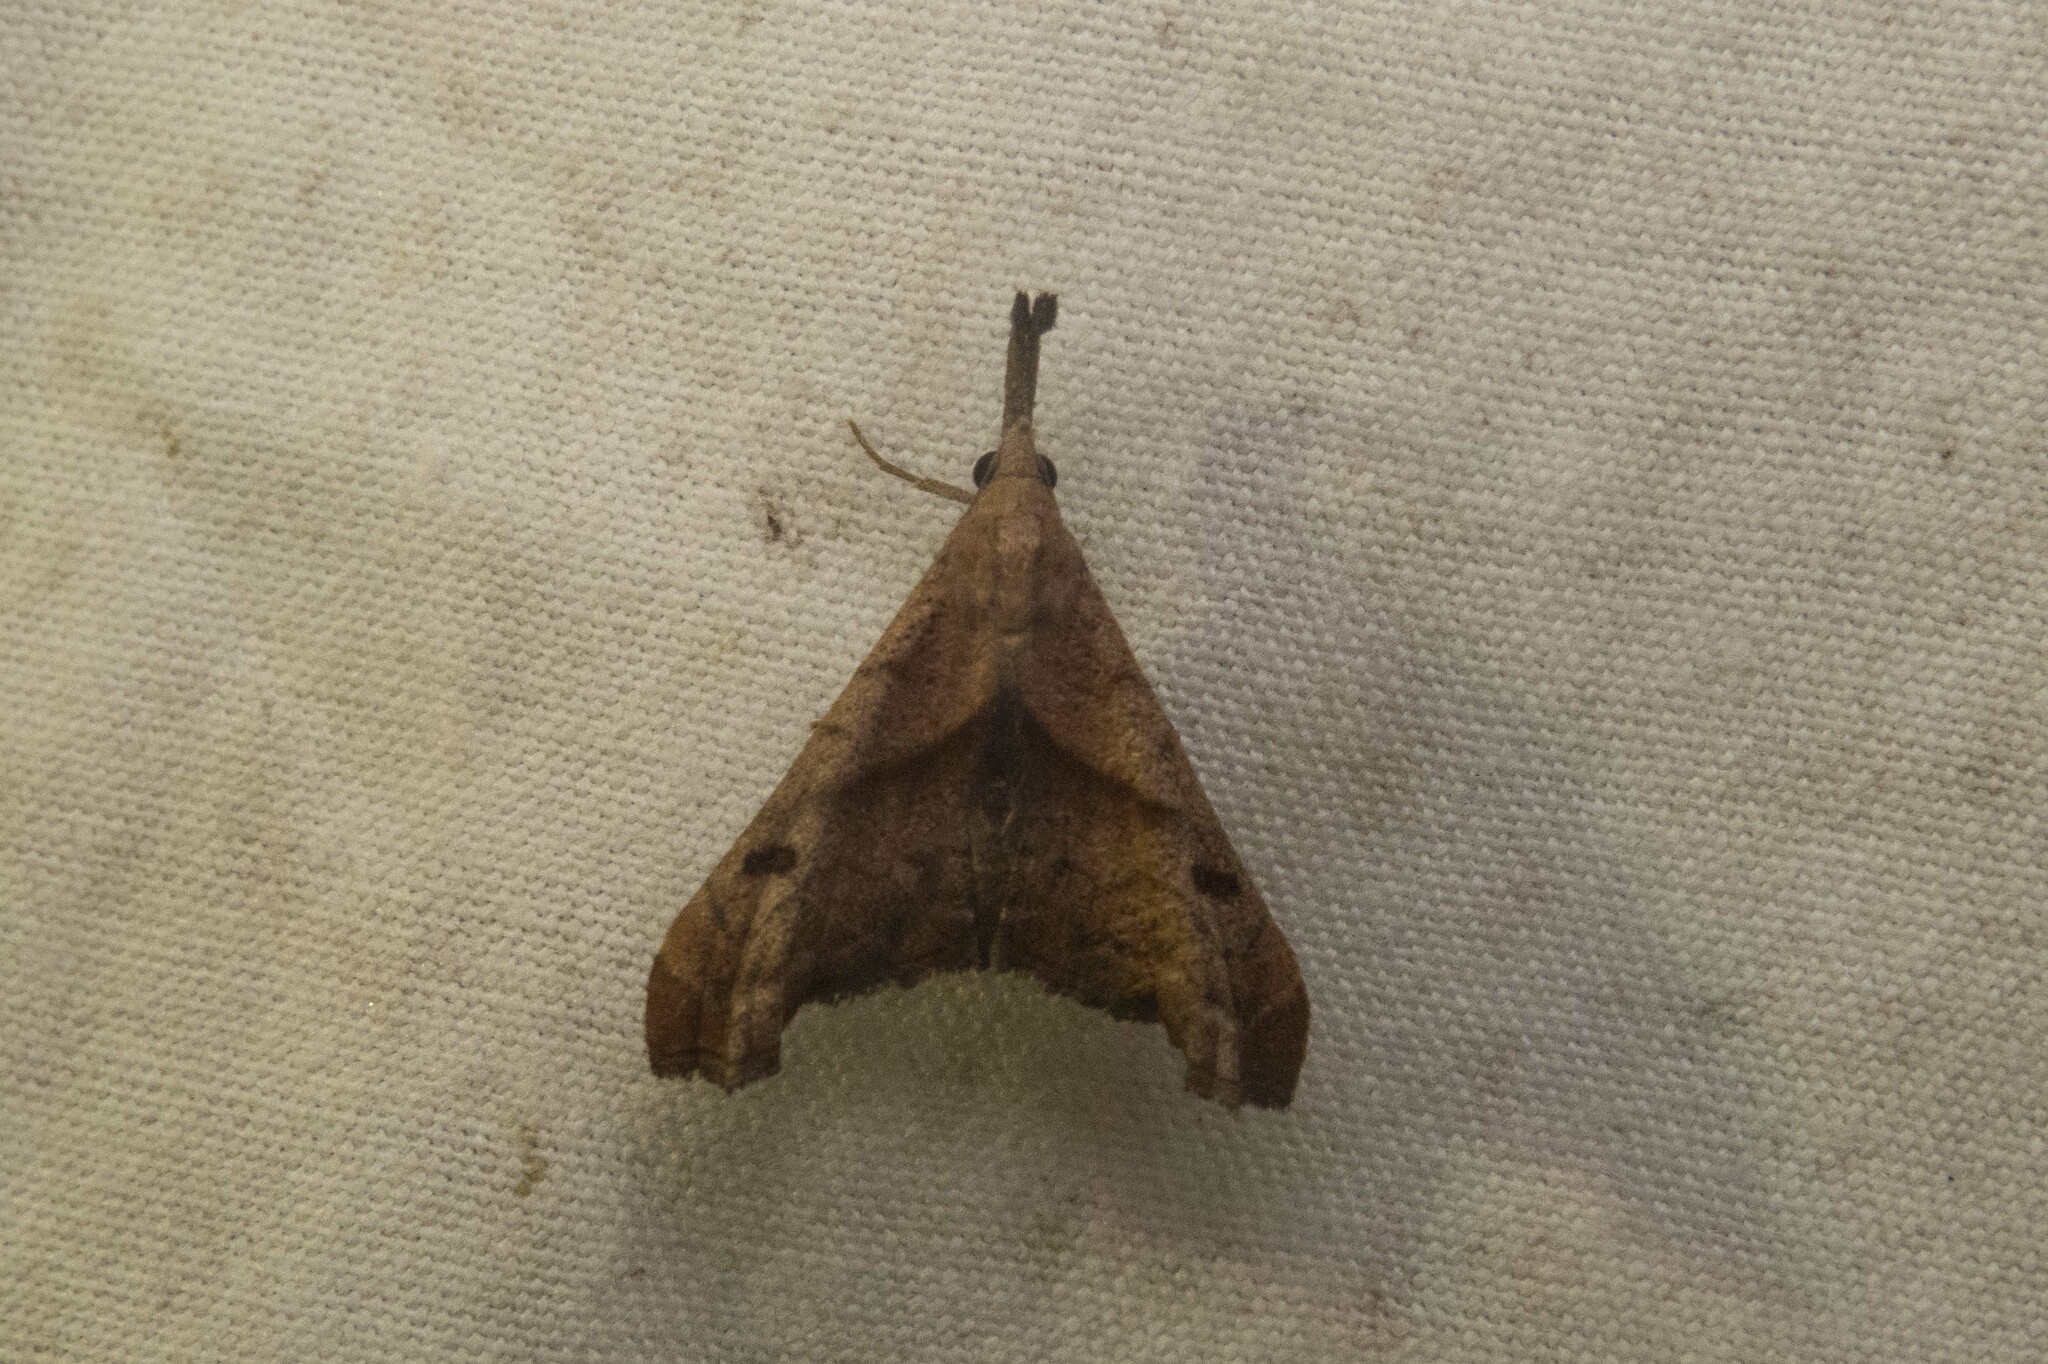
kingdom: Animalia
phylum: Arthropoda
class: Insecta
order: Lepidoptera
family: Erebidae
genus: Palthis
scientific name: Palthis angulalis
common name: Dark-spotted palthis moth
